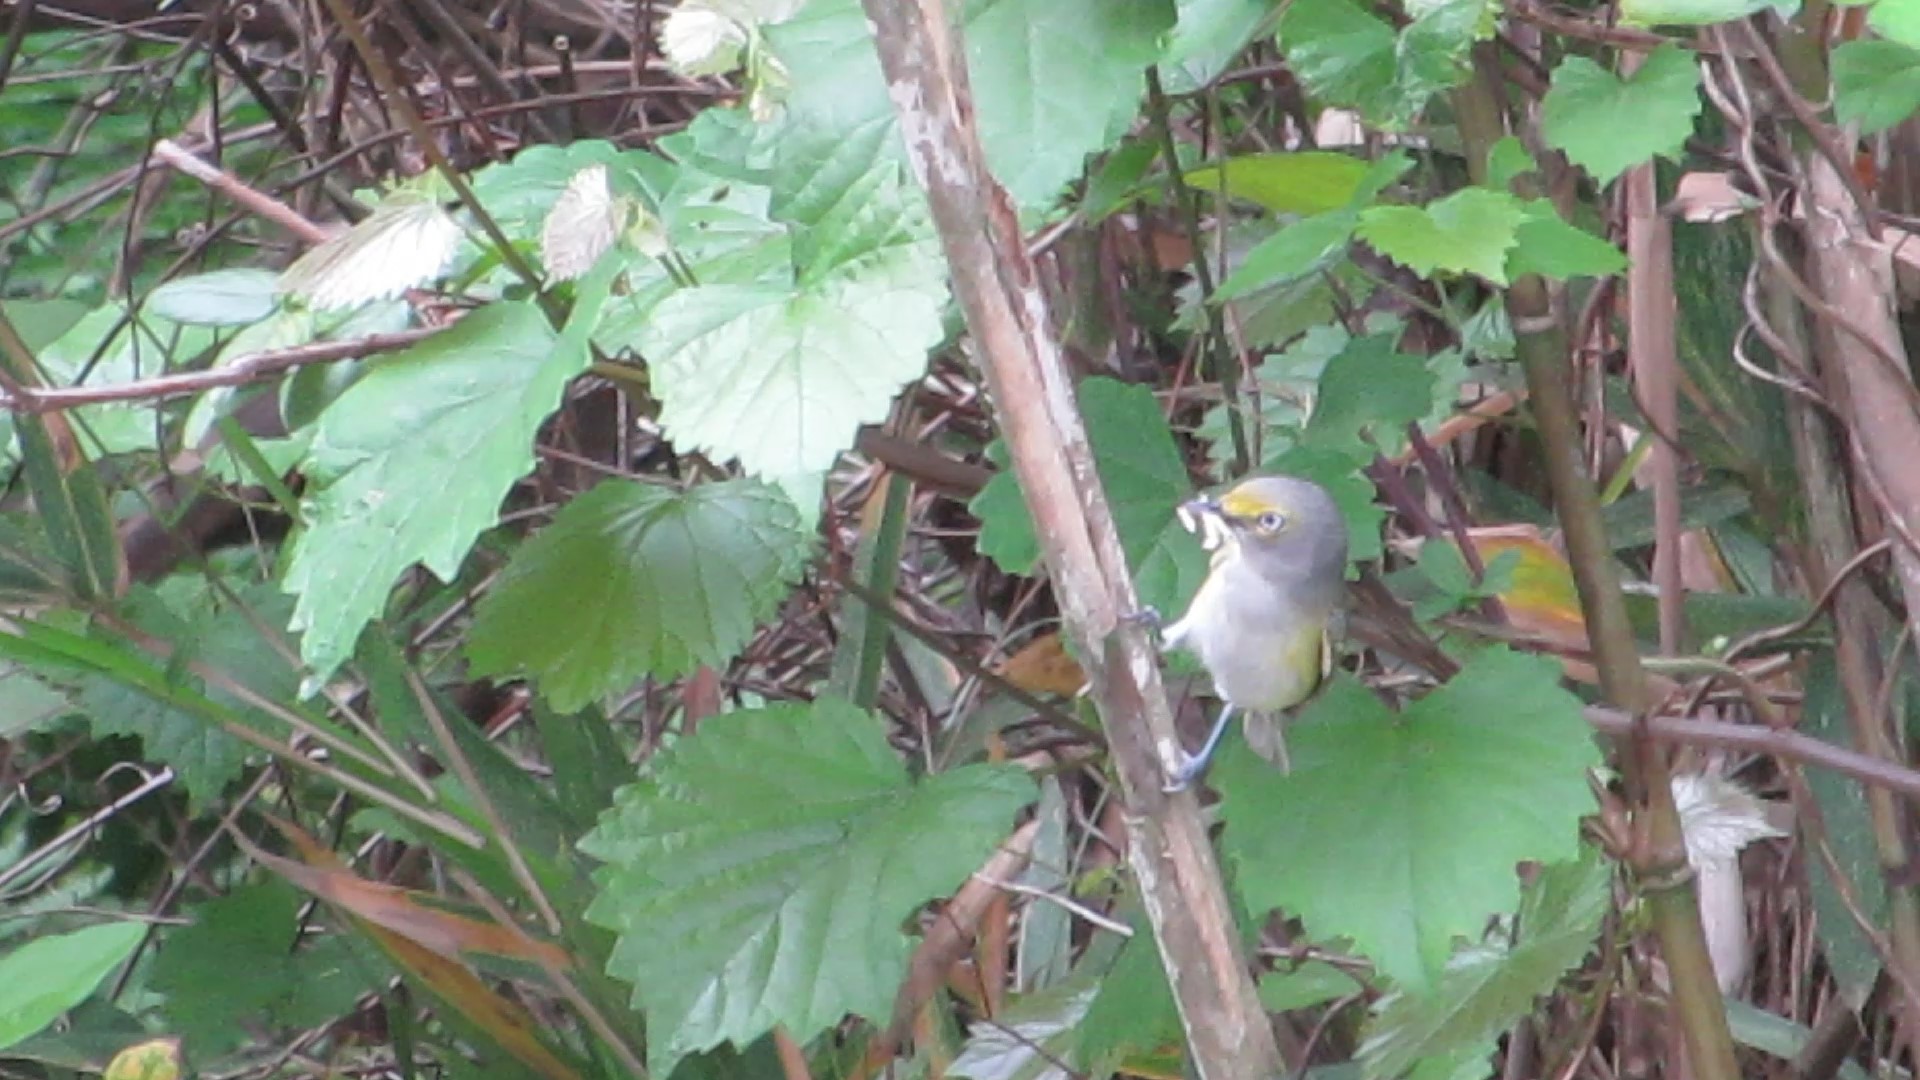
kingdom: Animalia
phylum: Chordata
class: Aves
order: Passeriformes
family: Vireonidae
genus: Vireo
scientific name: Vireo griseus
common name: White-eyed vireo
